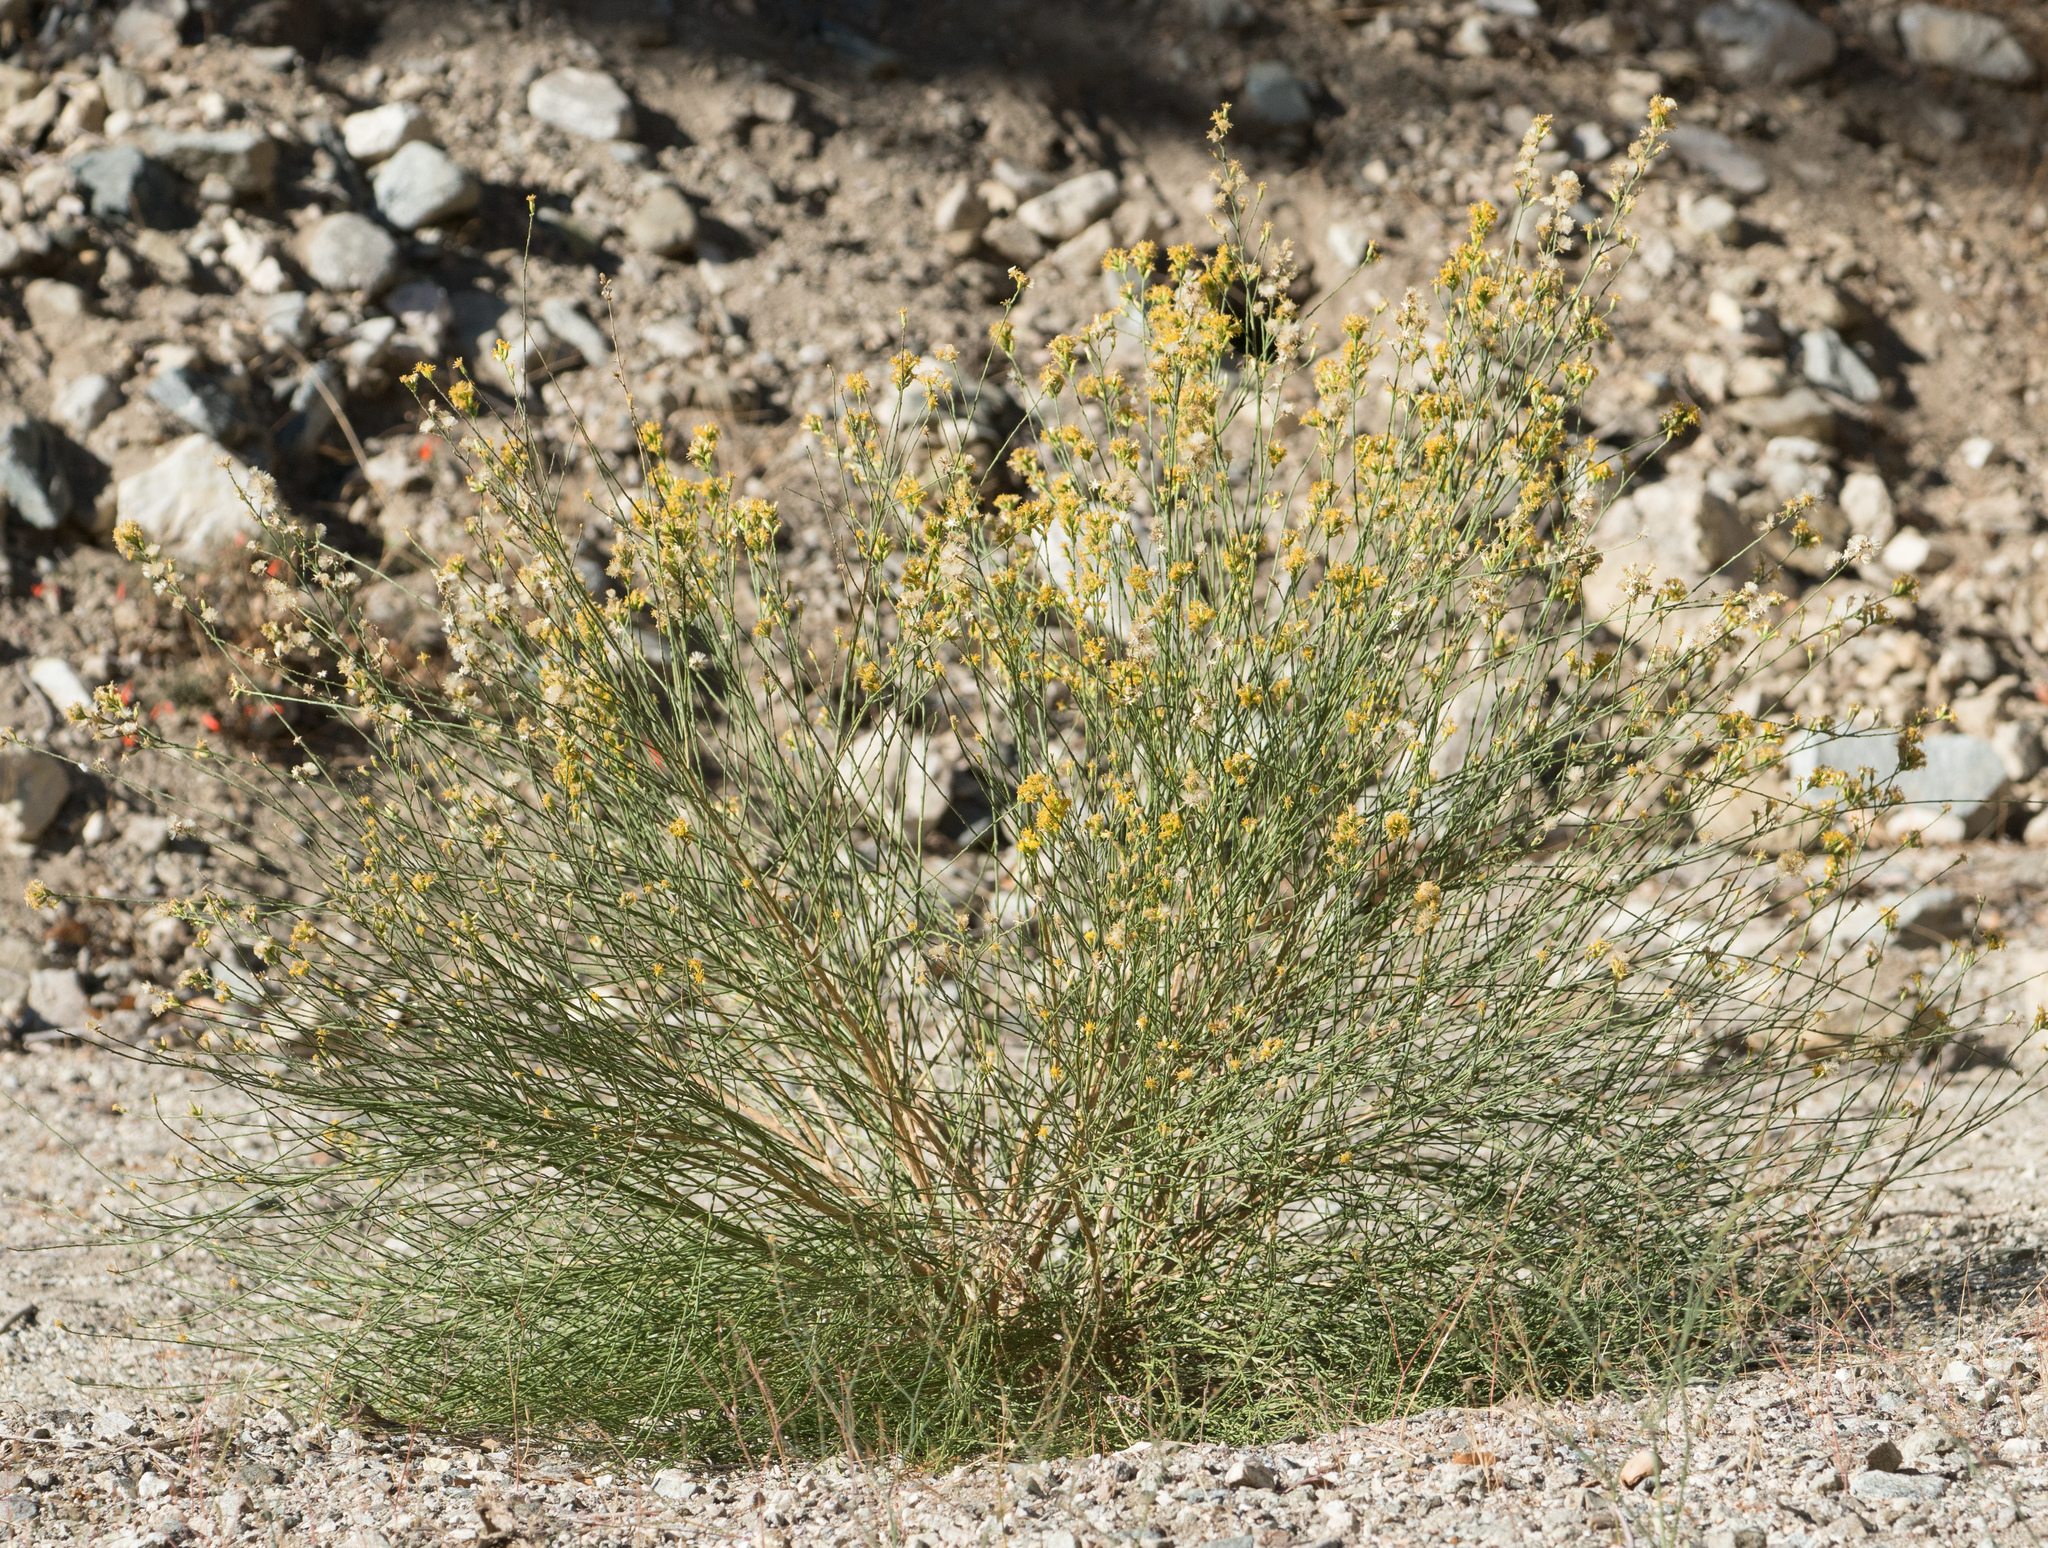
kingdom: Plantae
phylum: Tracheophyta
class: Magnoliopsida
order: Asterales
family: Asteraceae
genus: Lepidospartum
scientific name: Lepidospartum squamatum
